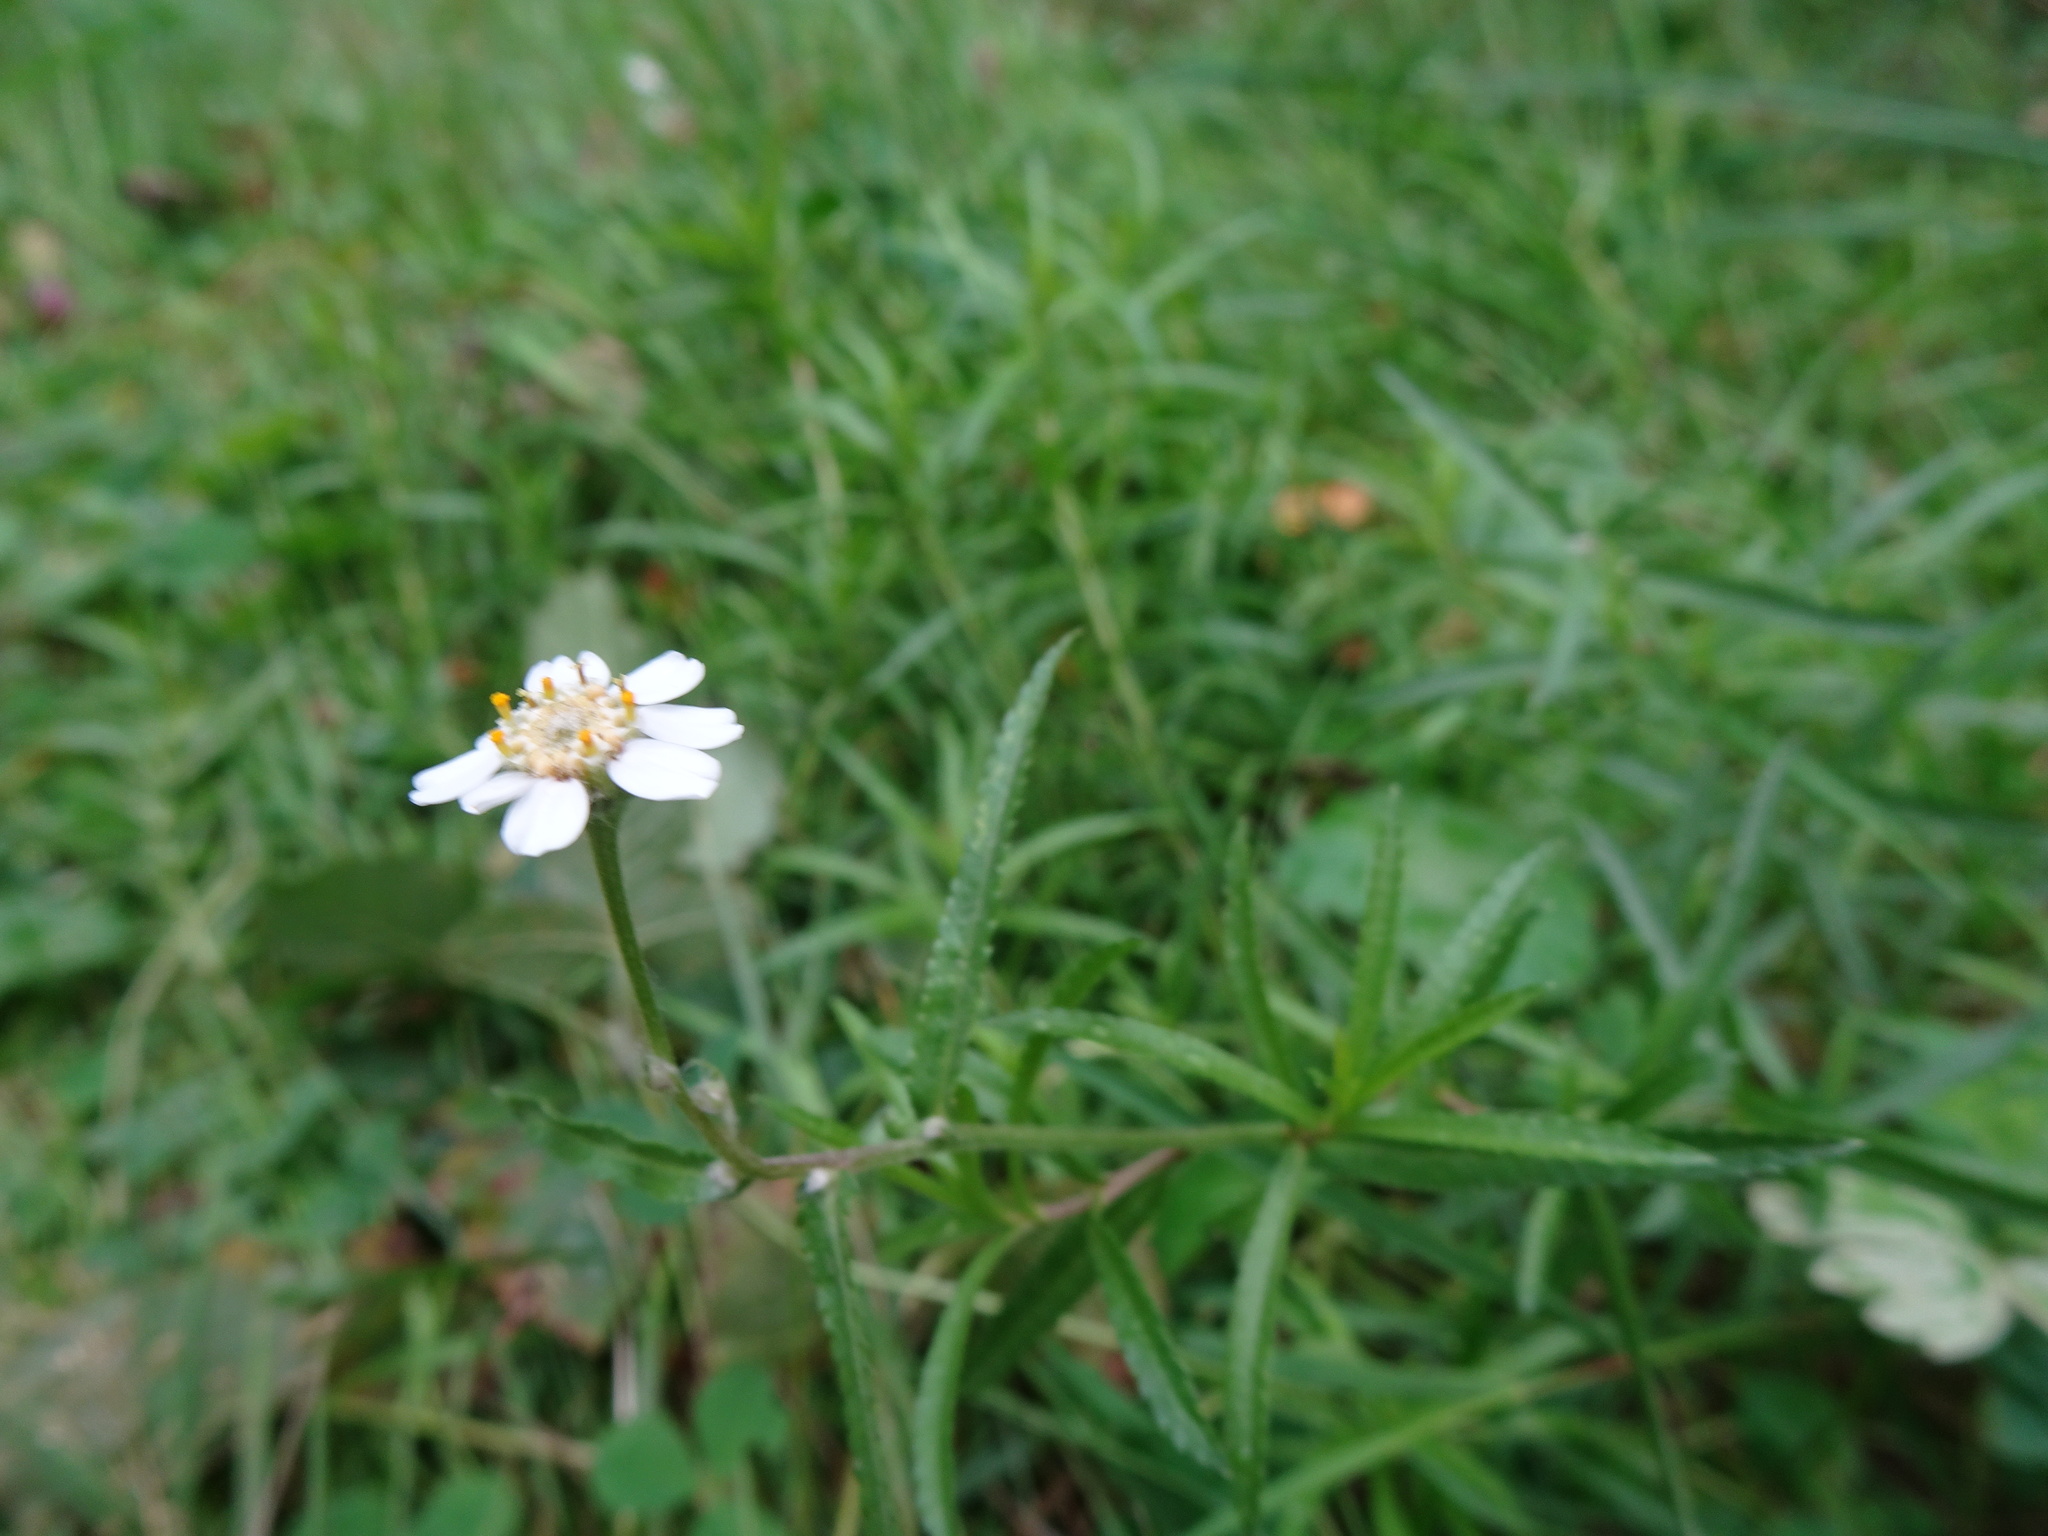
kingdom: Plantae
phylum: Tracheophyta
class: Magnoliopsida
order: Asterales
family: Asteraceae
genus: Achillea
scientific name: Achillea ptarmica
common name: Sneezeweed
